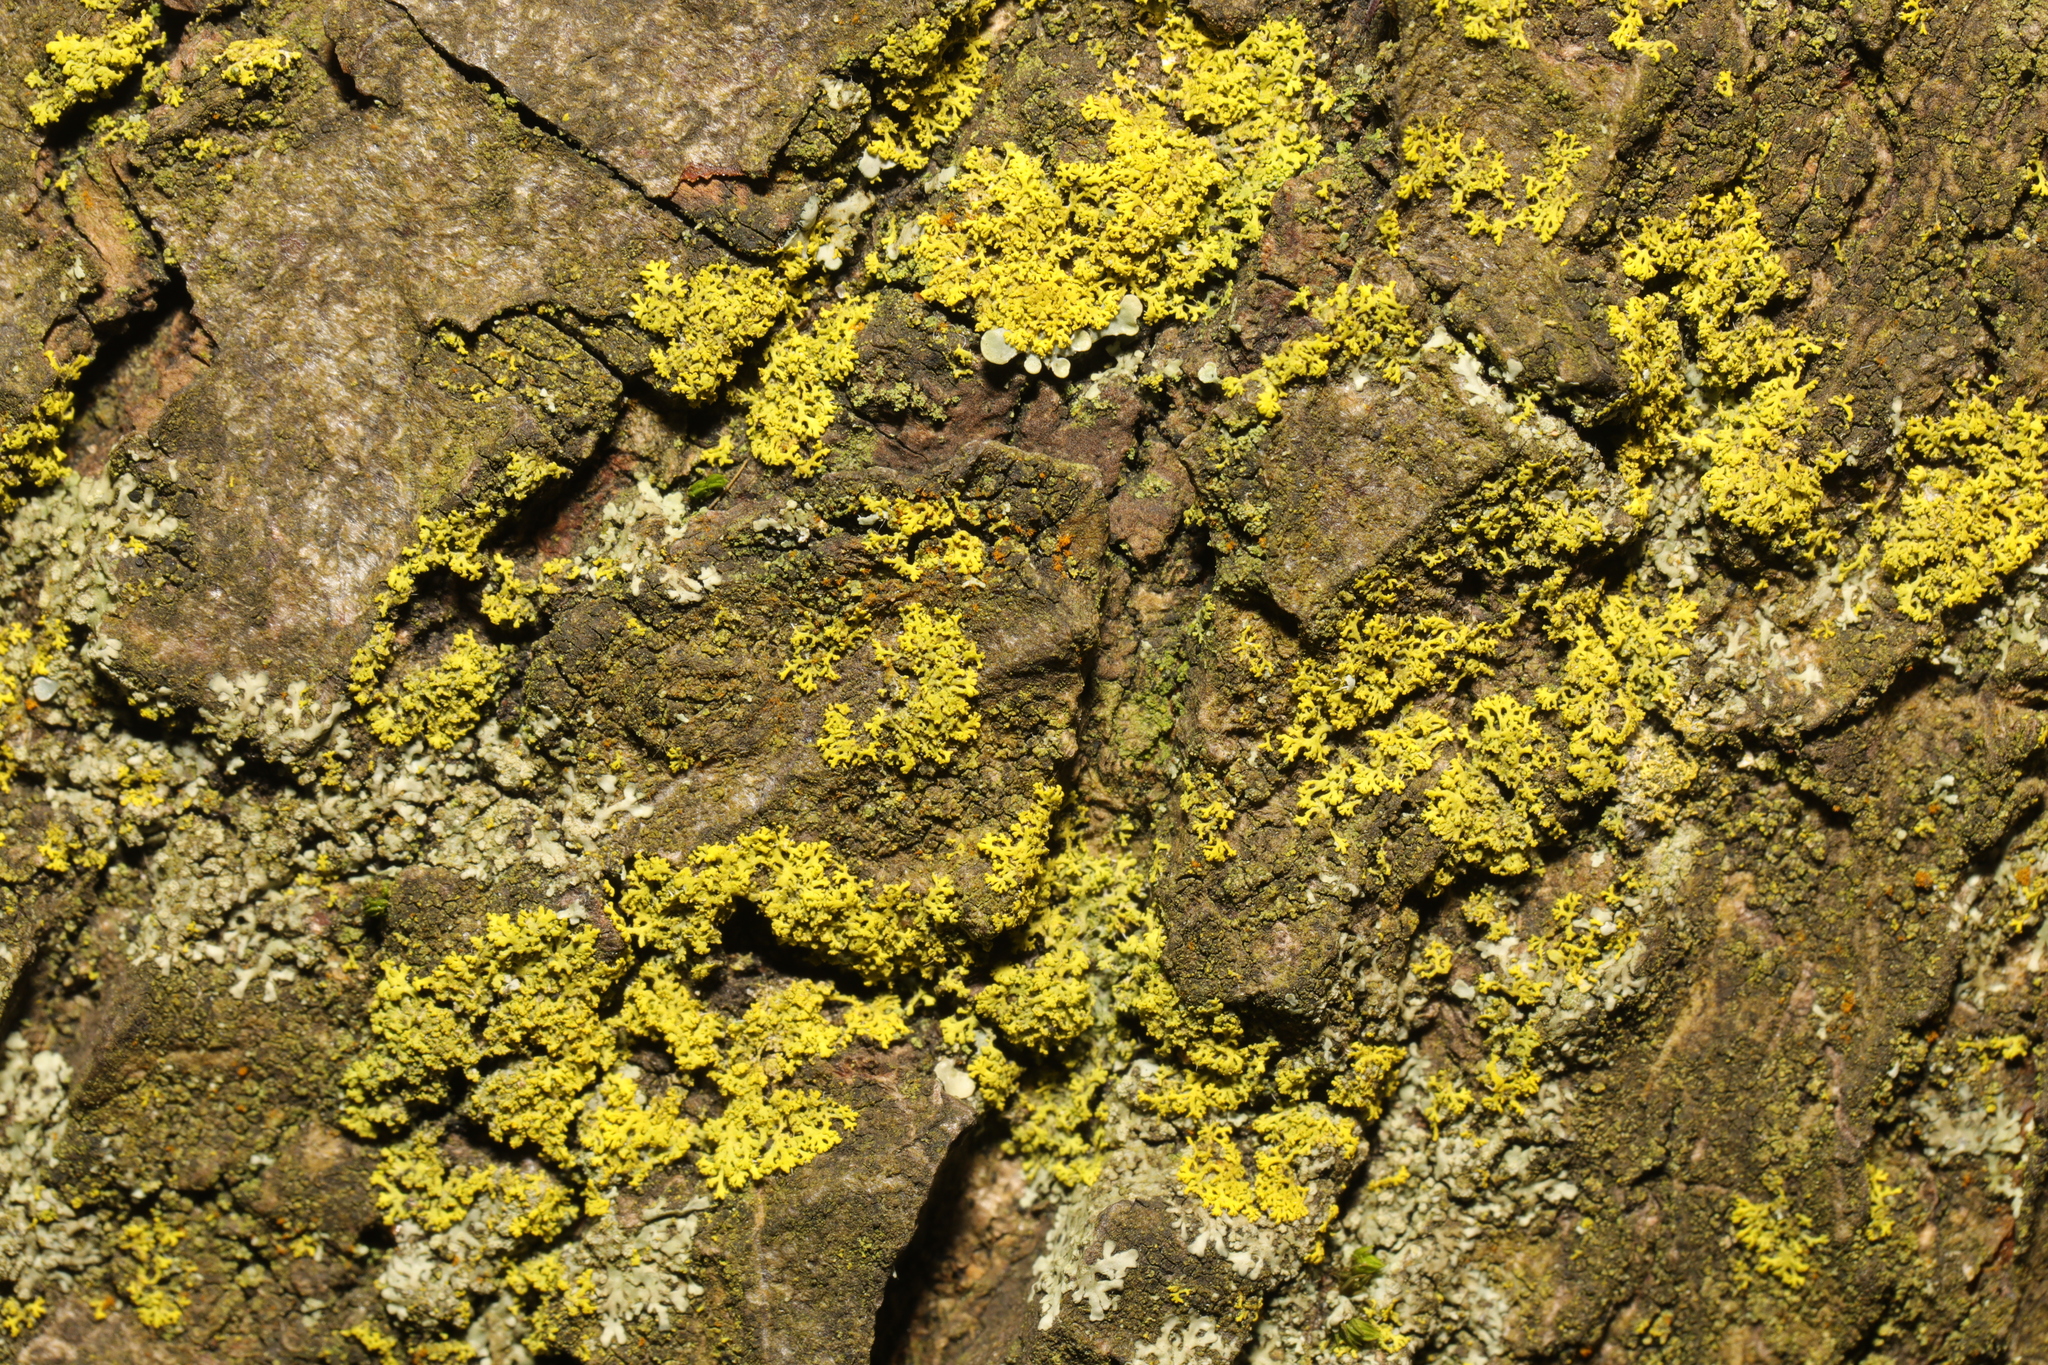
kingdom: Fungi
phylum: Ascomycota
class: Candelariomycetes
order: Candelariales
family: Candelariaceae
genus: Candelaria
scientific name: Candelaria concolor
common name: Candleflame lichen
